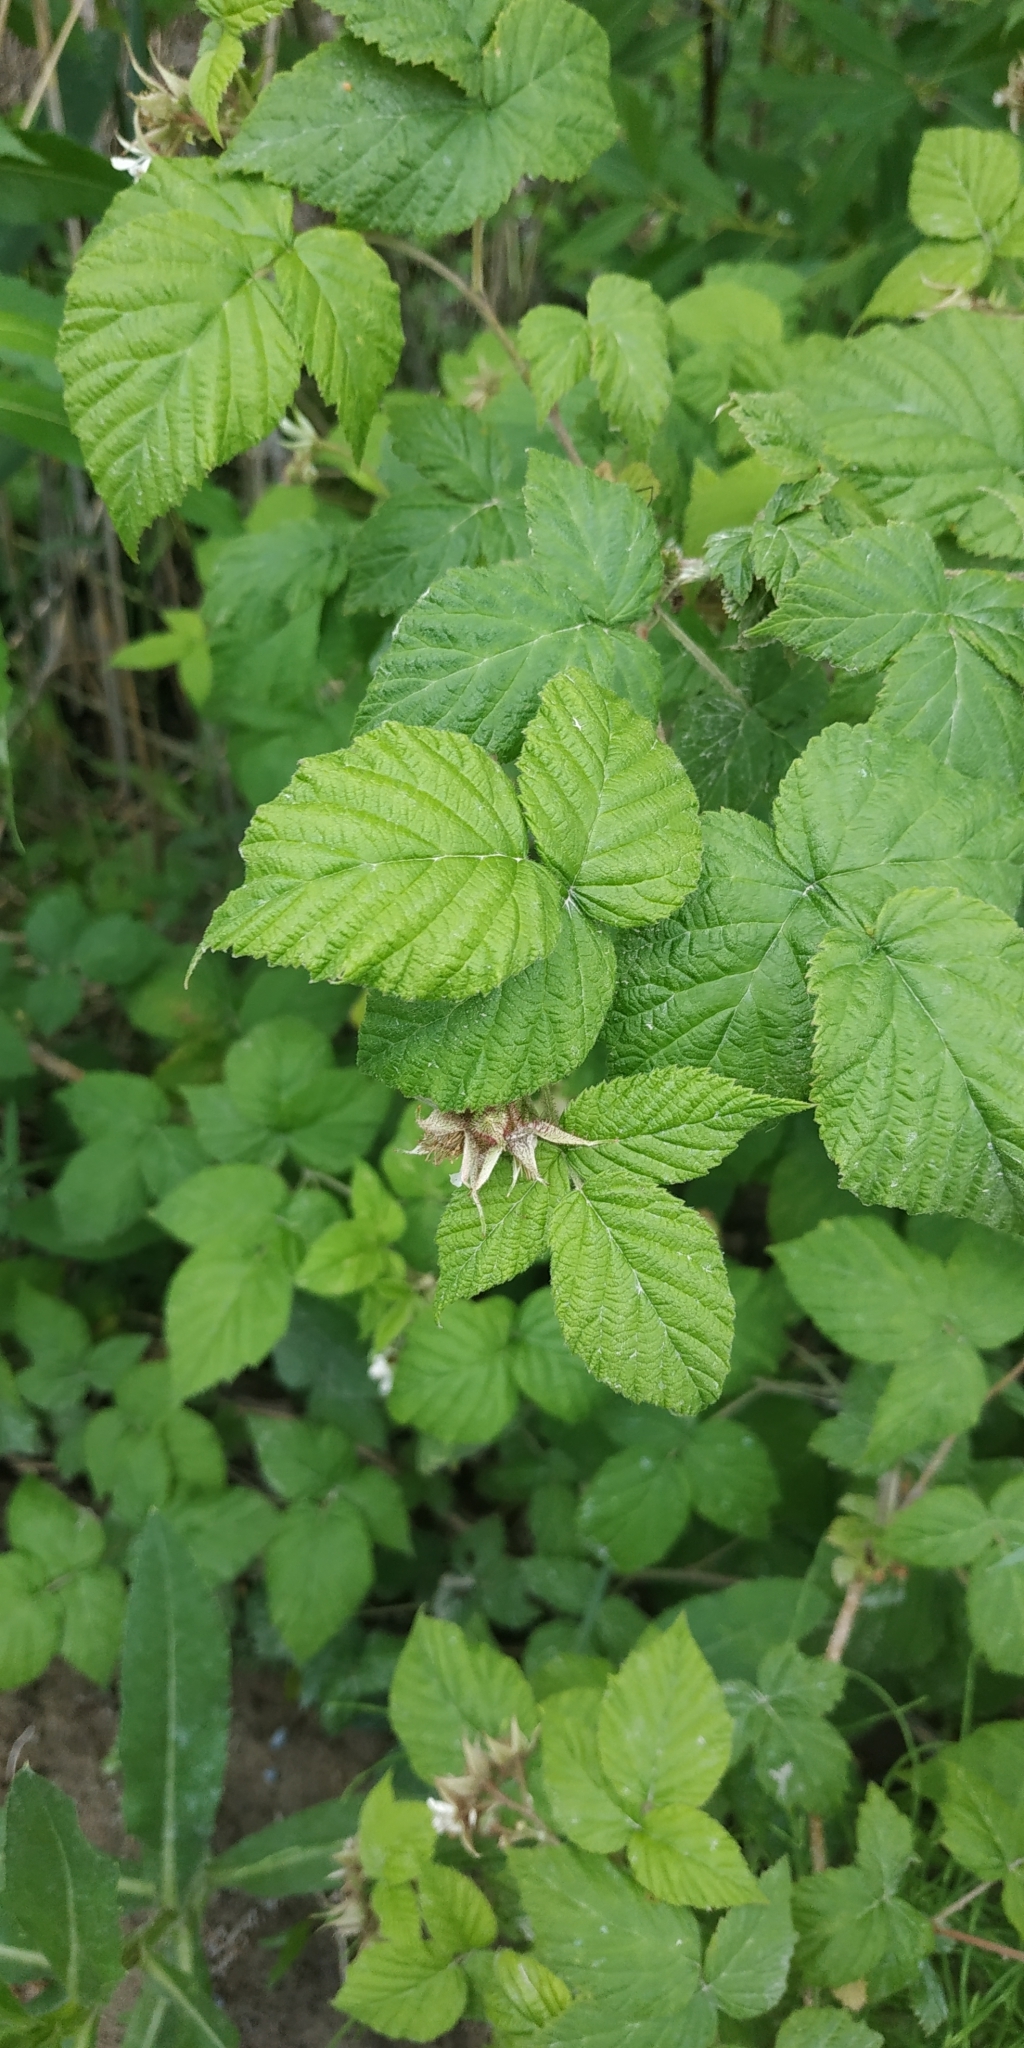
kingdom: Plantae
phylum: Tracheophyta
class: Magnoliopsida
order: Rosales
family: Rosaceae
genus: Rubus
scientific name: Rubus idaeus
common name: Raspberry
